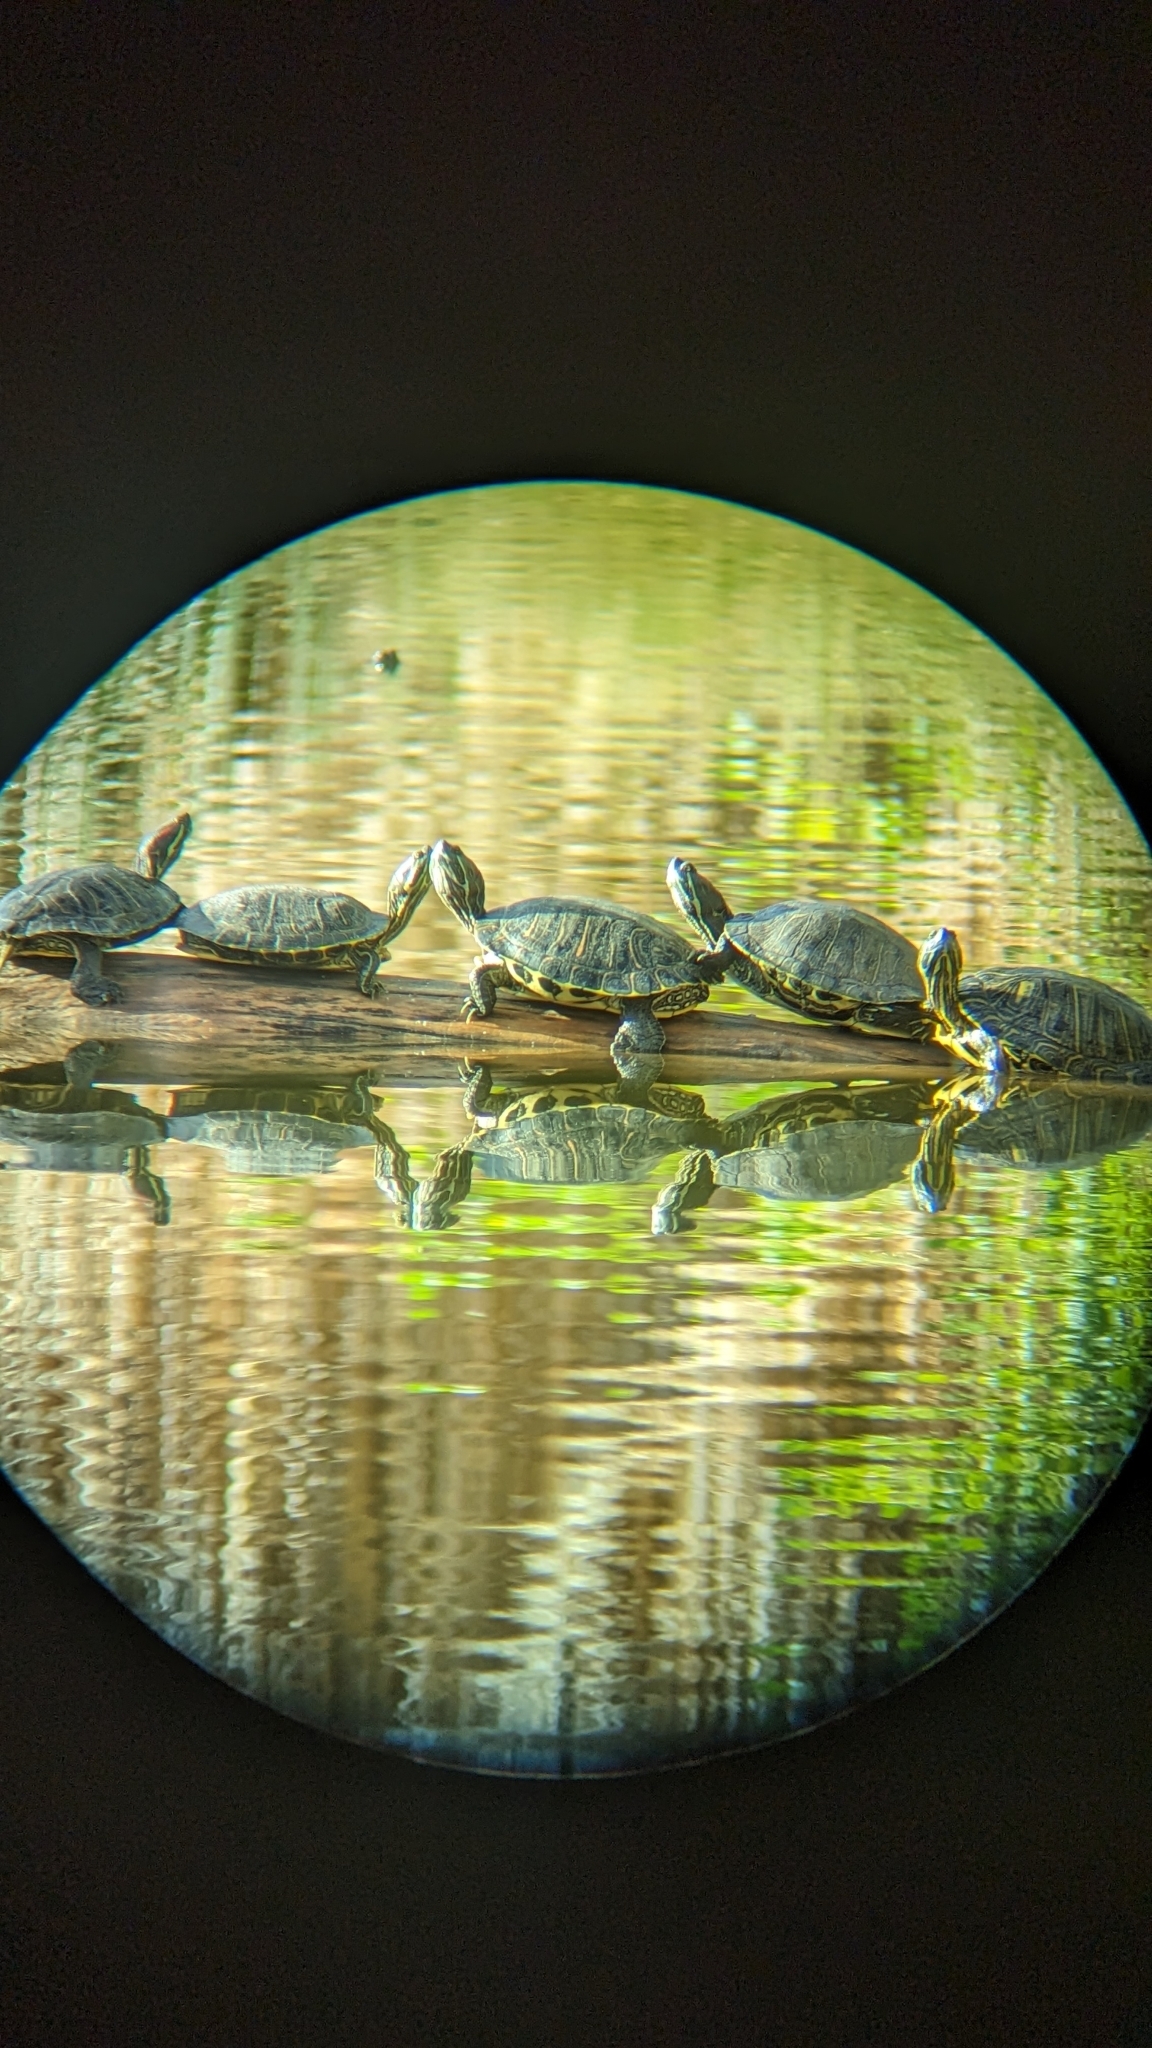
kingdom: Animalia
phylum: Chordata
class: Testudines
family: Emydidae
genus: Trachemys
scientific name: Trachemys scripta
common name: Slider
